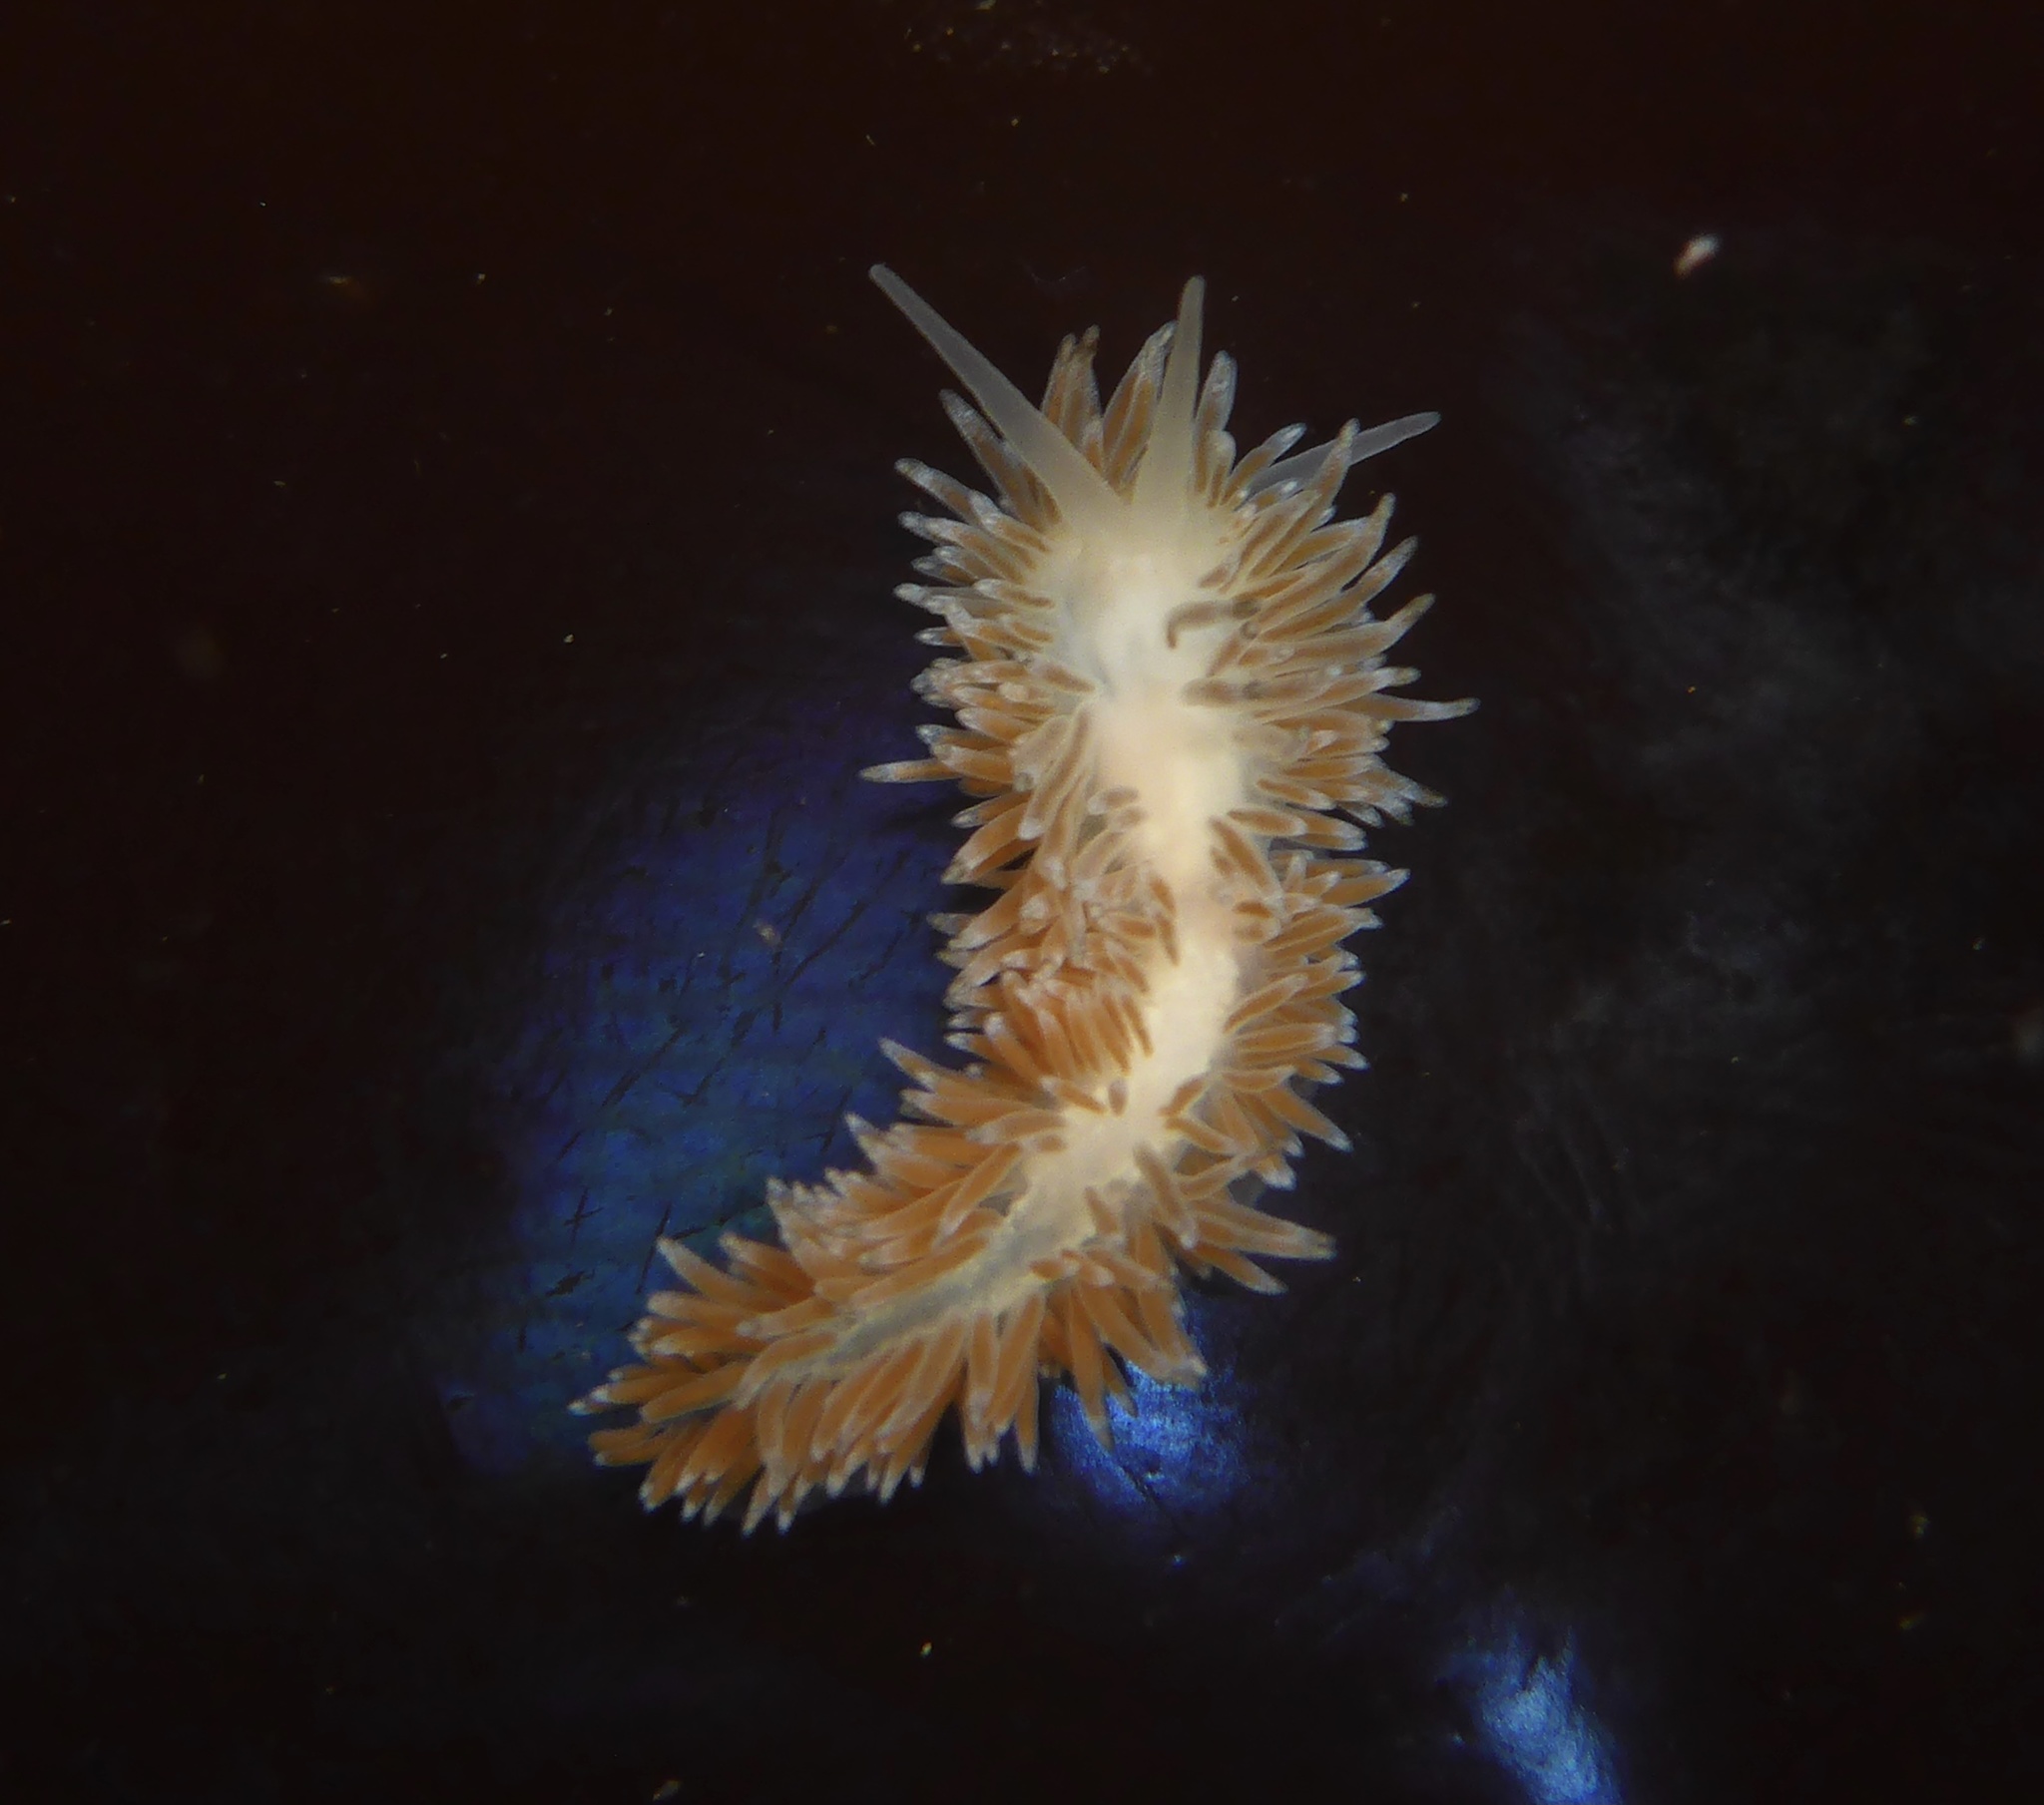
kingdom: Animalia
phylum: Mollusca
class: Gastropoda
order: Nudibranchia
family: Cuthonidae
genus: Cuthona
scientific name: Cuthona divae
